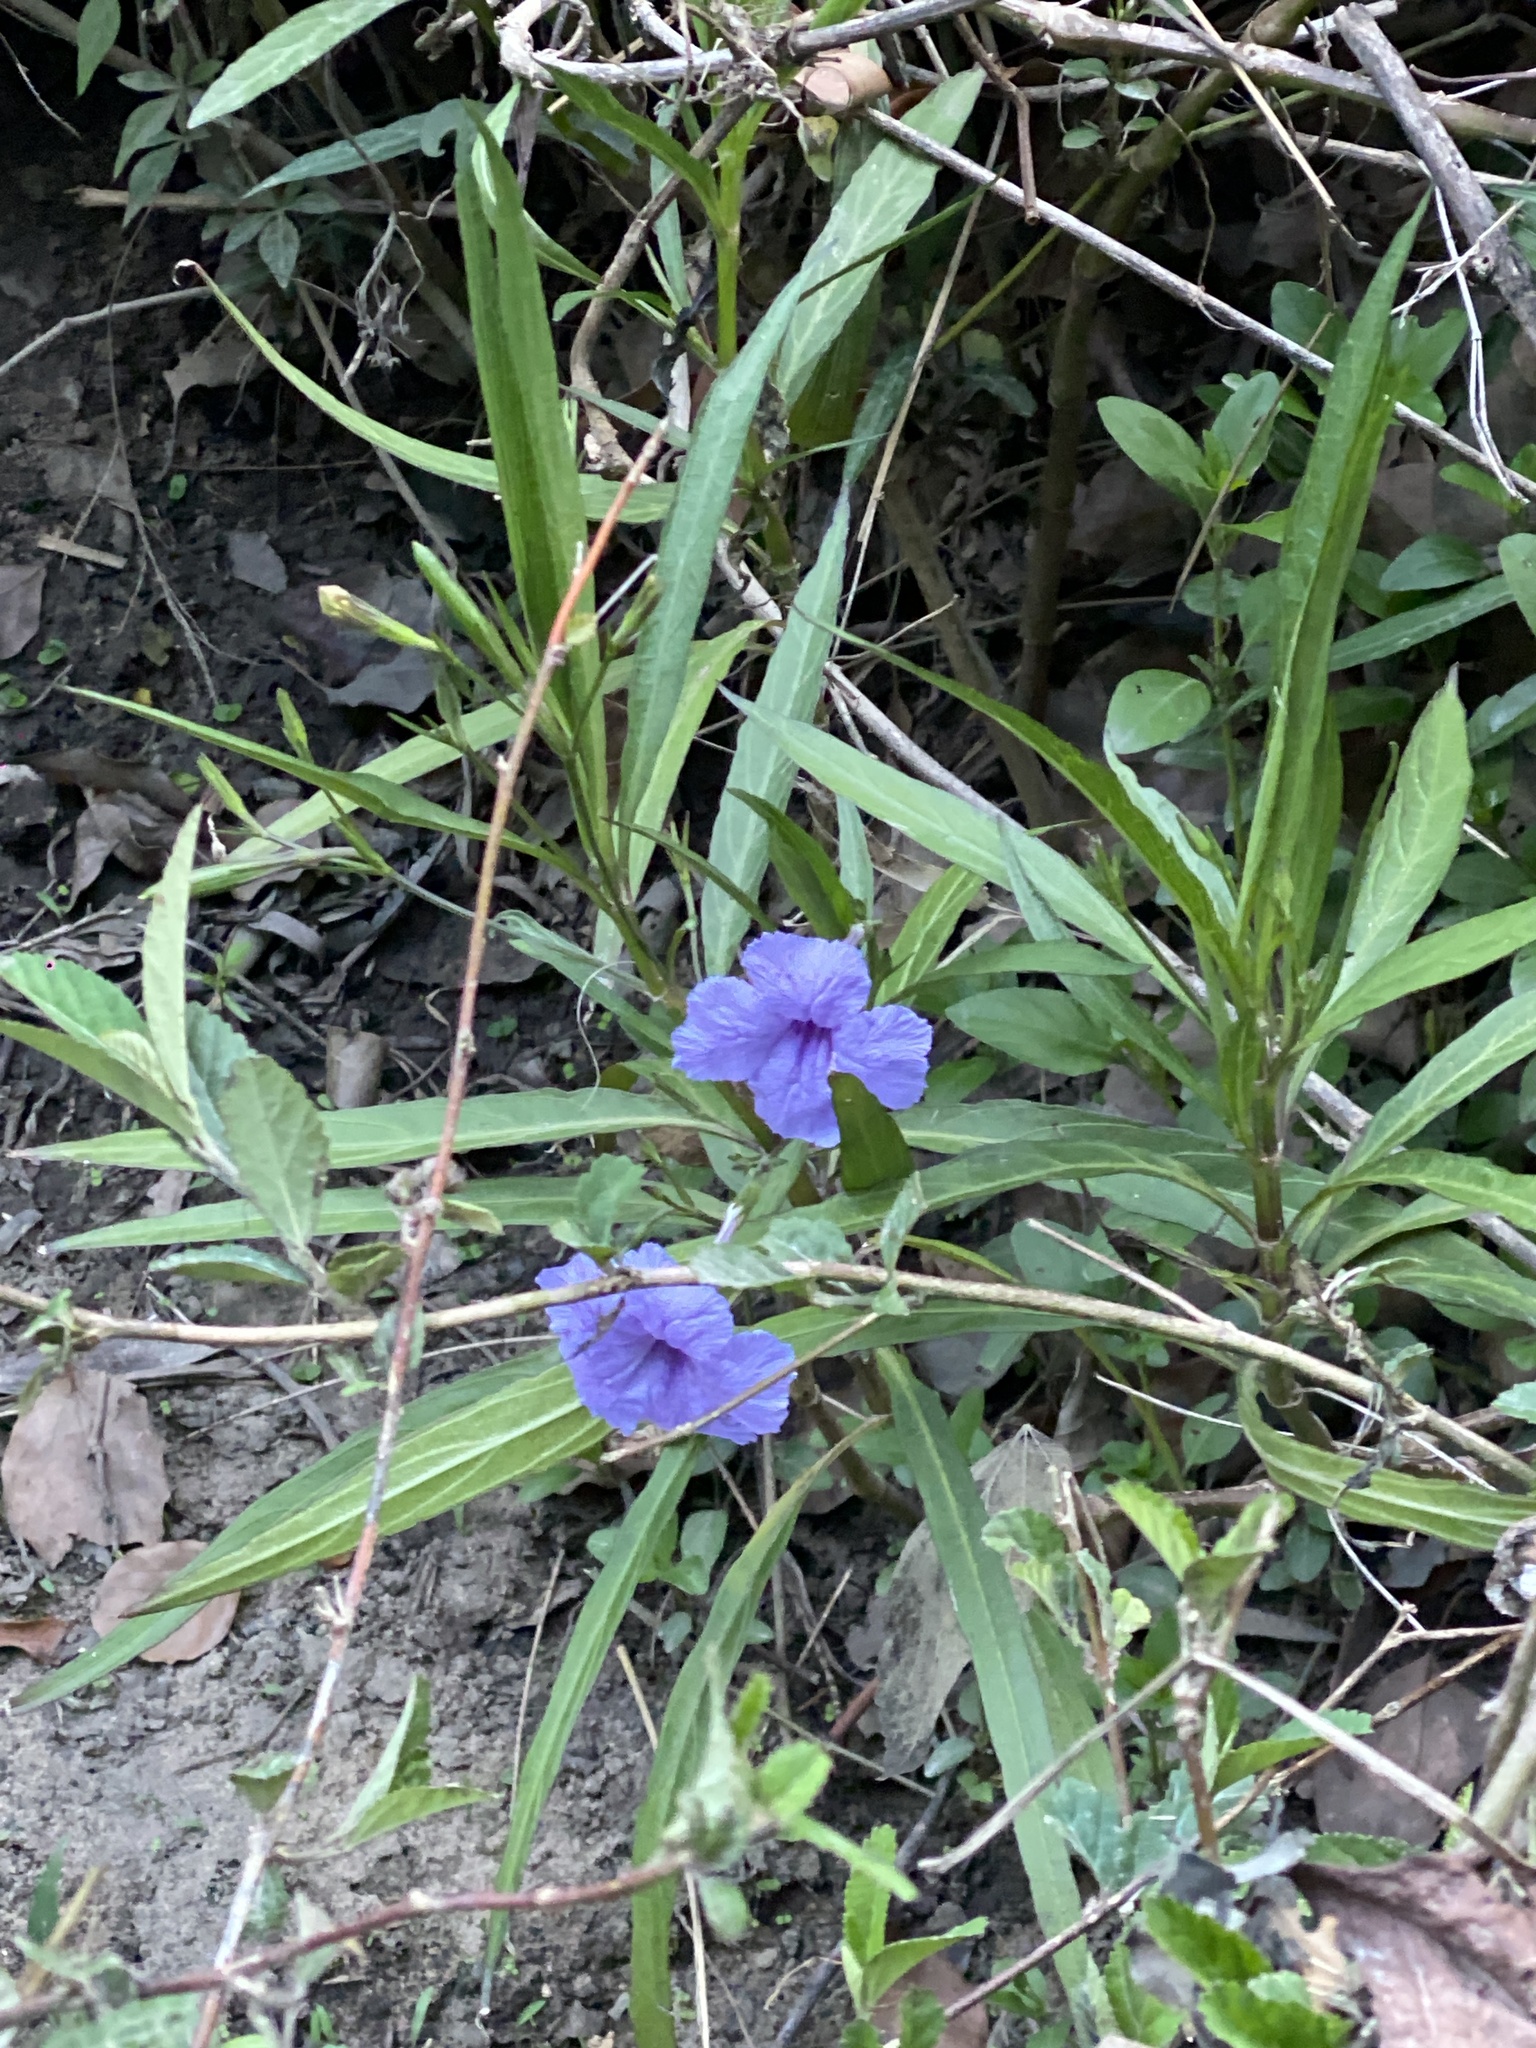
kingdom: Plantae
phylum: Tracheophyta
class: Magnoliopsida
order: Lamiales
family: Acanthaceae
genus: Ruellia
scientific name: Ruellia simplex
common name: Softseed wild petunia
